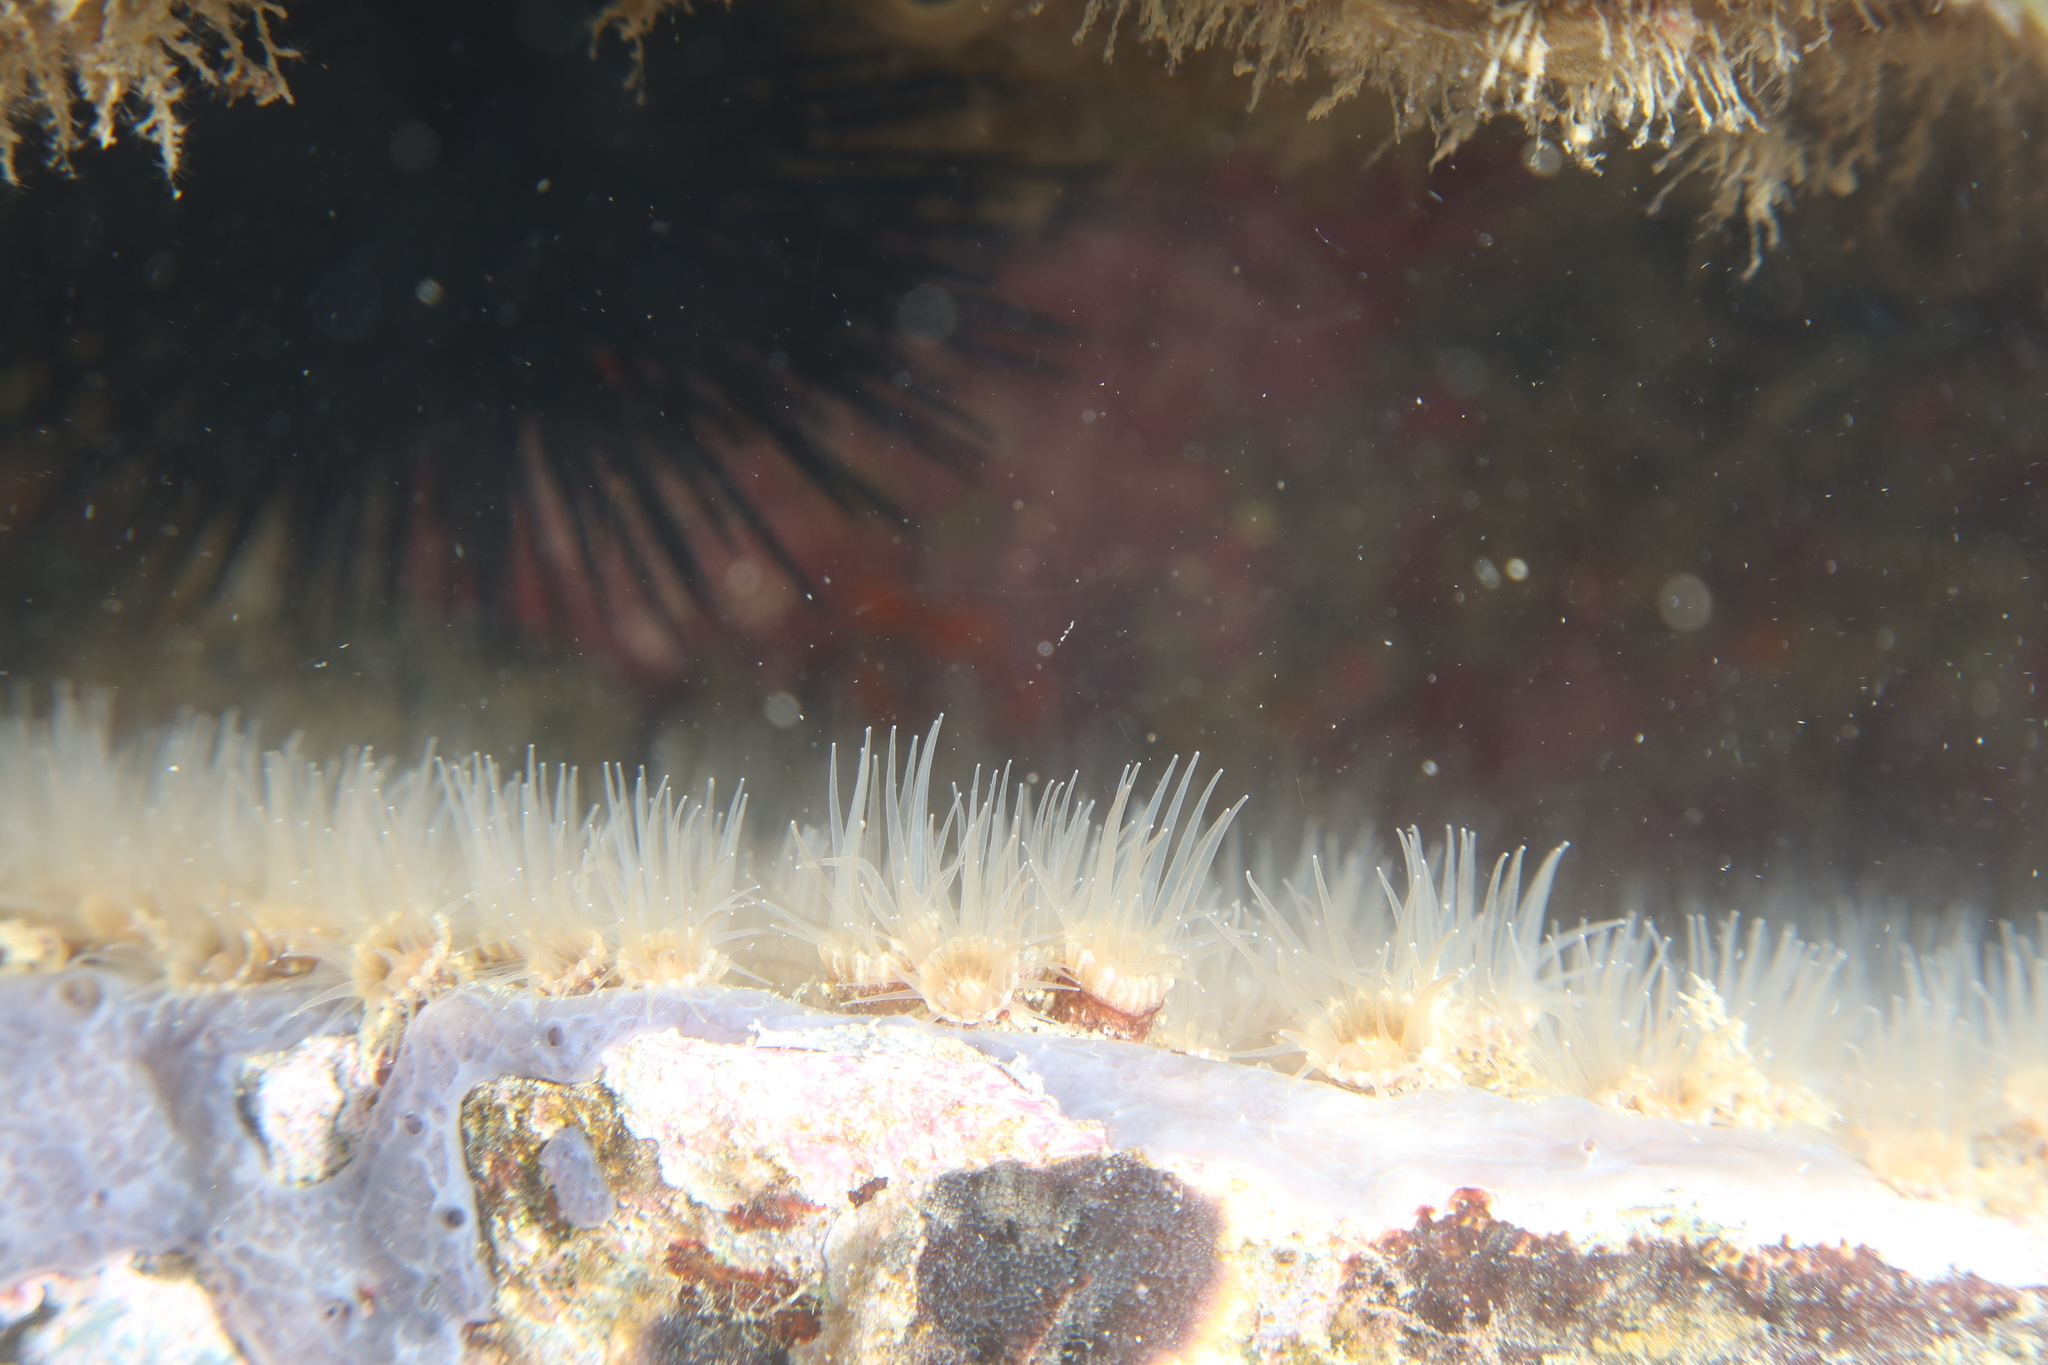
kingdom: Animalia
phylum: Cnidaria
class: Anthozoa
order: Zoantharia
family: Epizoanthidae
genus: Epizoanthus
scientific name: Epizoanthus arenaceus
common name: Gray encrusting anemone
